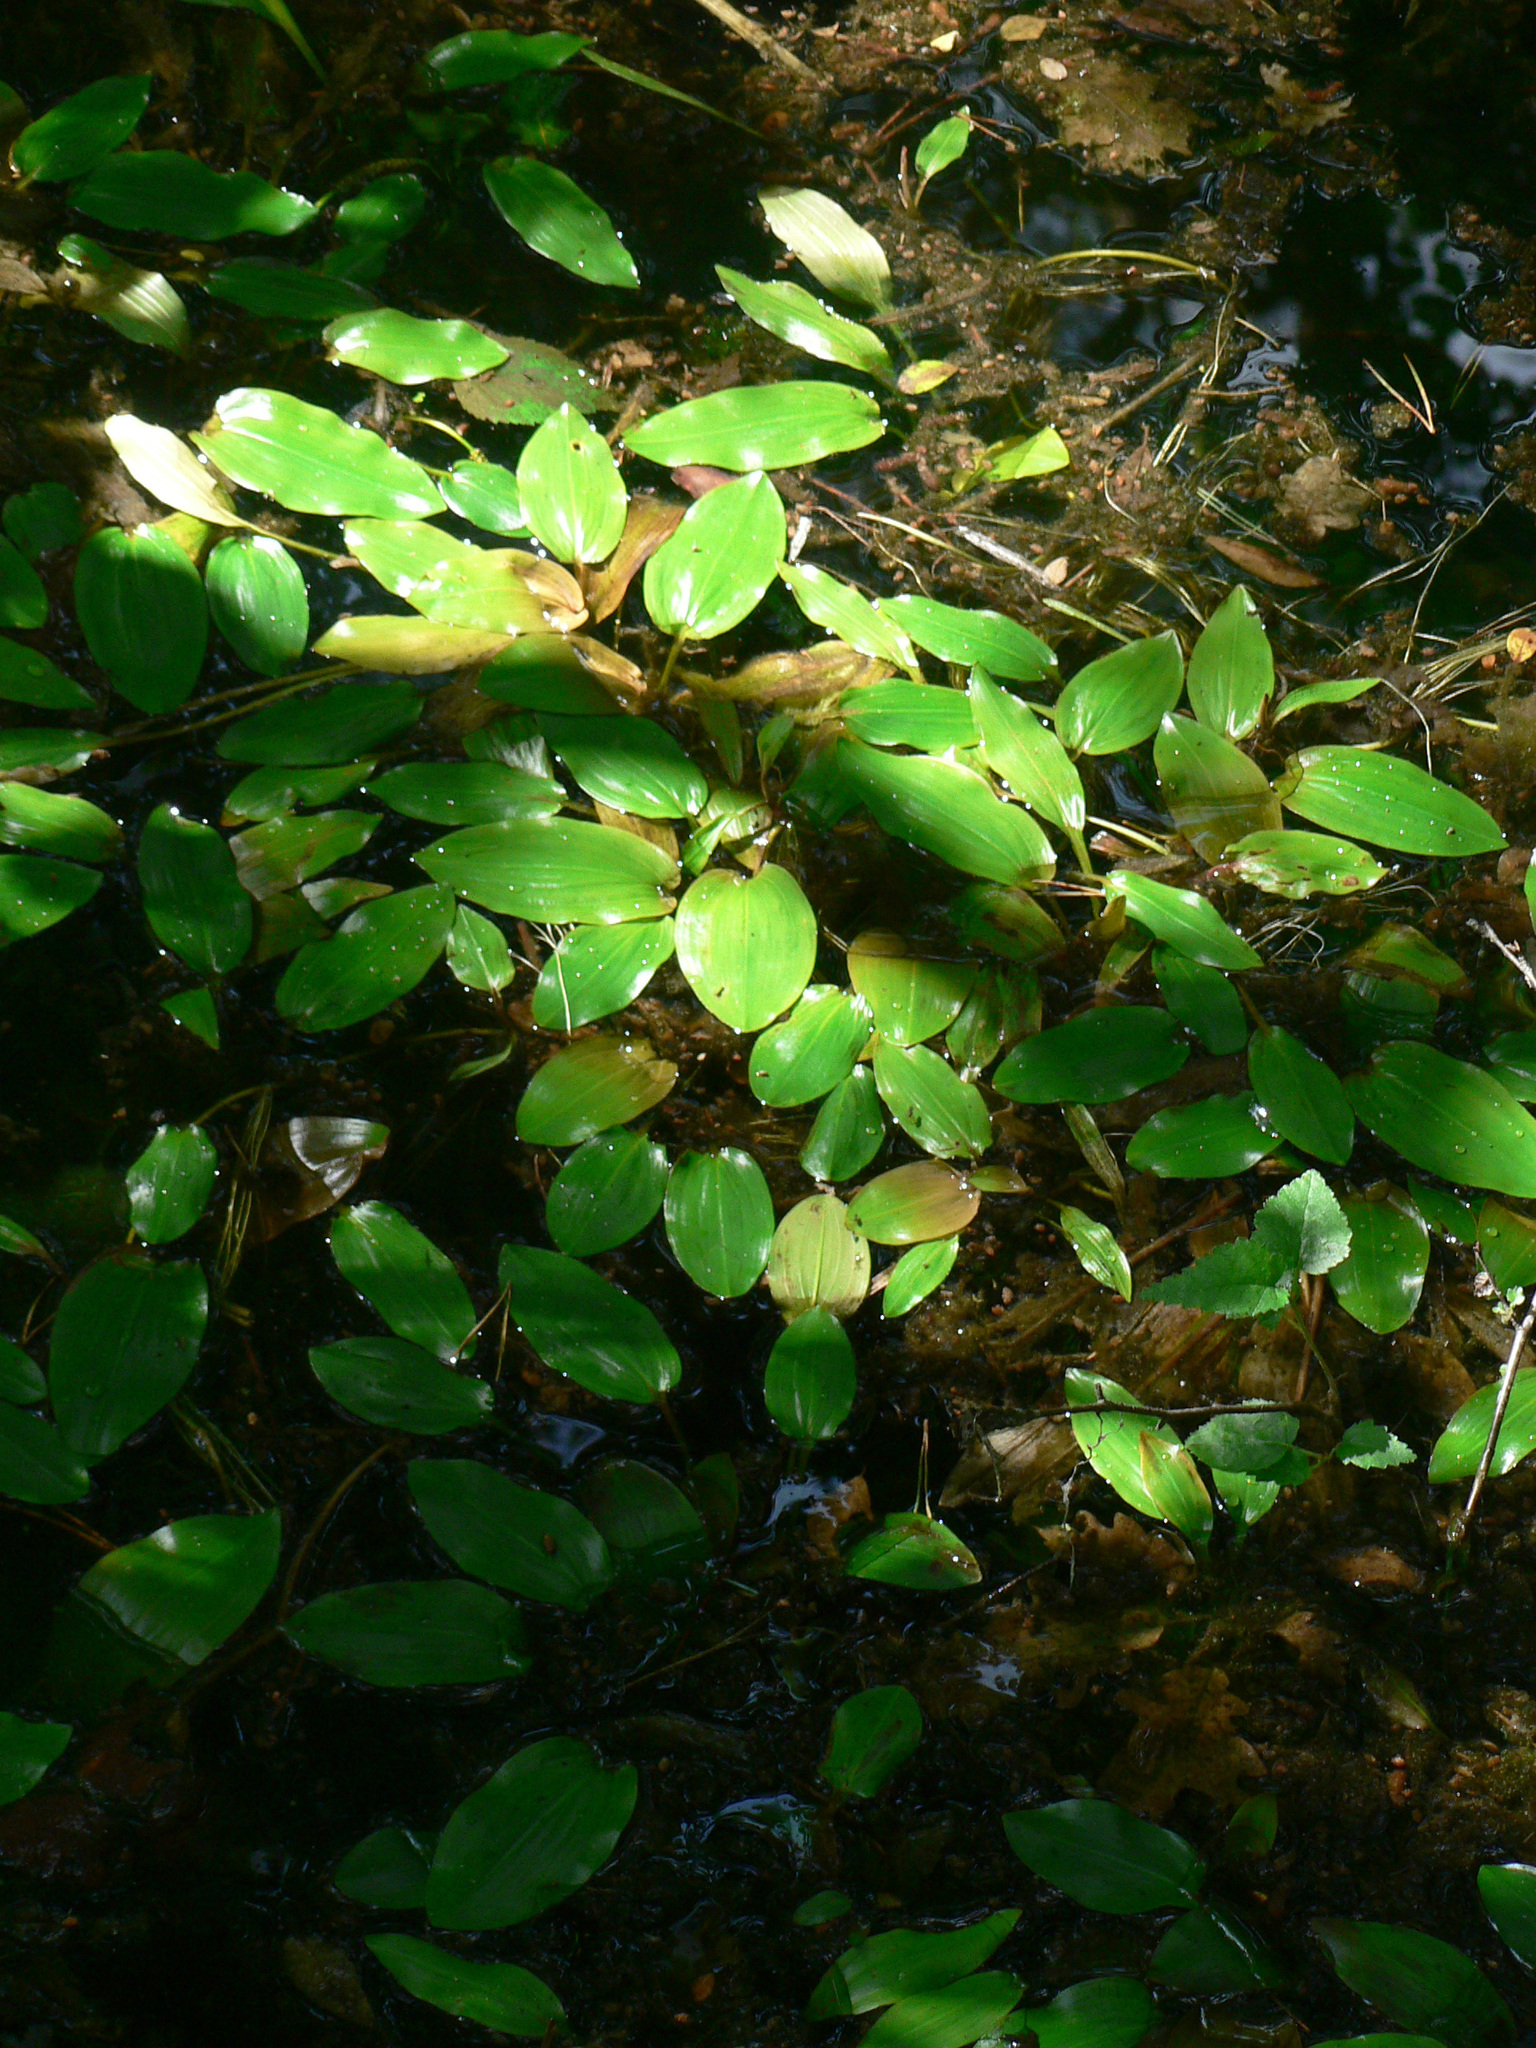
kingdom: Plantae
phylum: Tracheophyta
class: Liliopsida
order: Alismatales
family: Potamogetonaceae
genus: Potamogeton
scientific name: Potamogeton polygonifolius
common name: Bog pondweed
